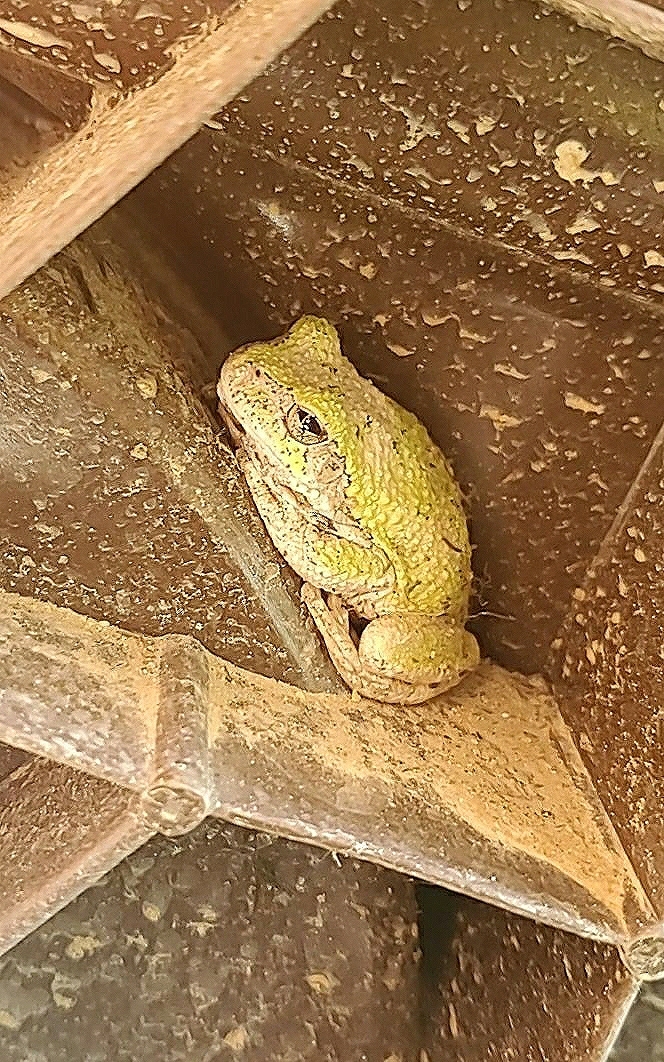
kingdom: Animalia
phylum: Chordata
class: Amphibia
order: Anura
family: Hylidae
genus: Hyla
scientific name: Hyla
